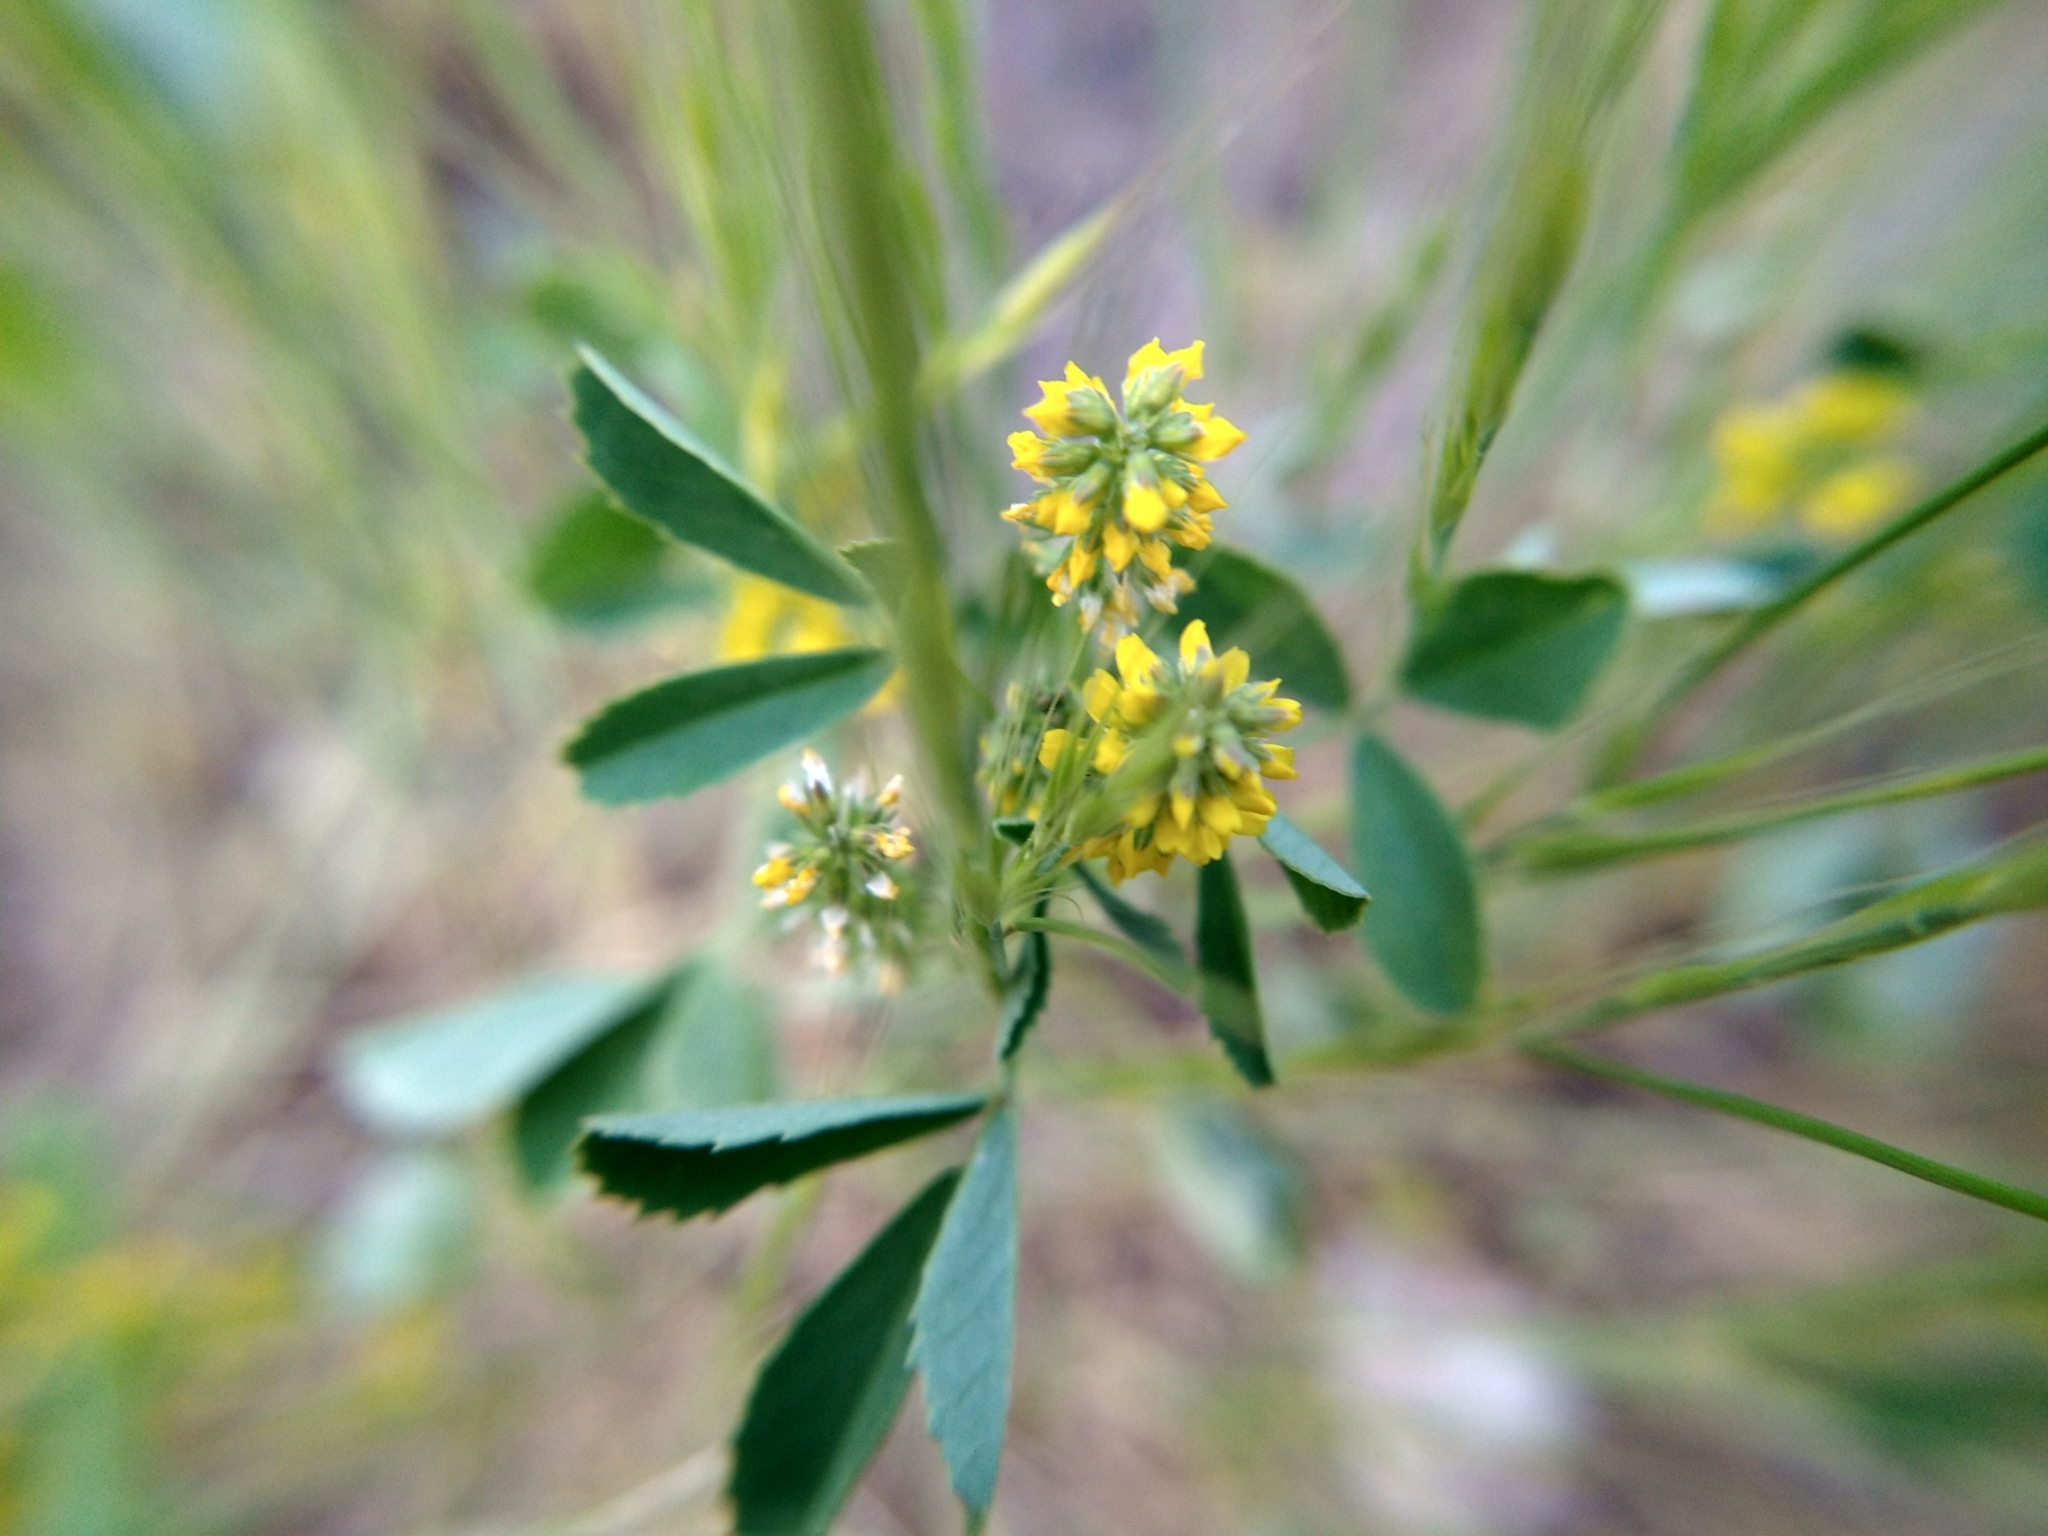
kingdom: Plantae
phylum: Tracheophyta
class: Magnoliopsida
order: Fabales
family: Fabaceae
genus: Melilotus
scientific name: Melilotus indicus
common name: Small melilot
